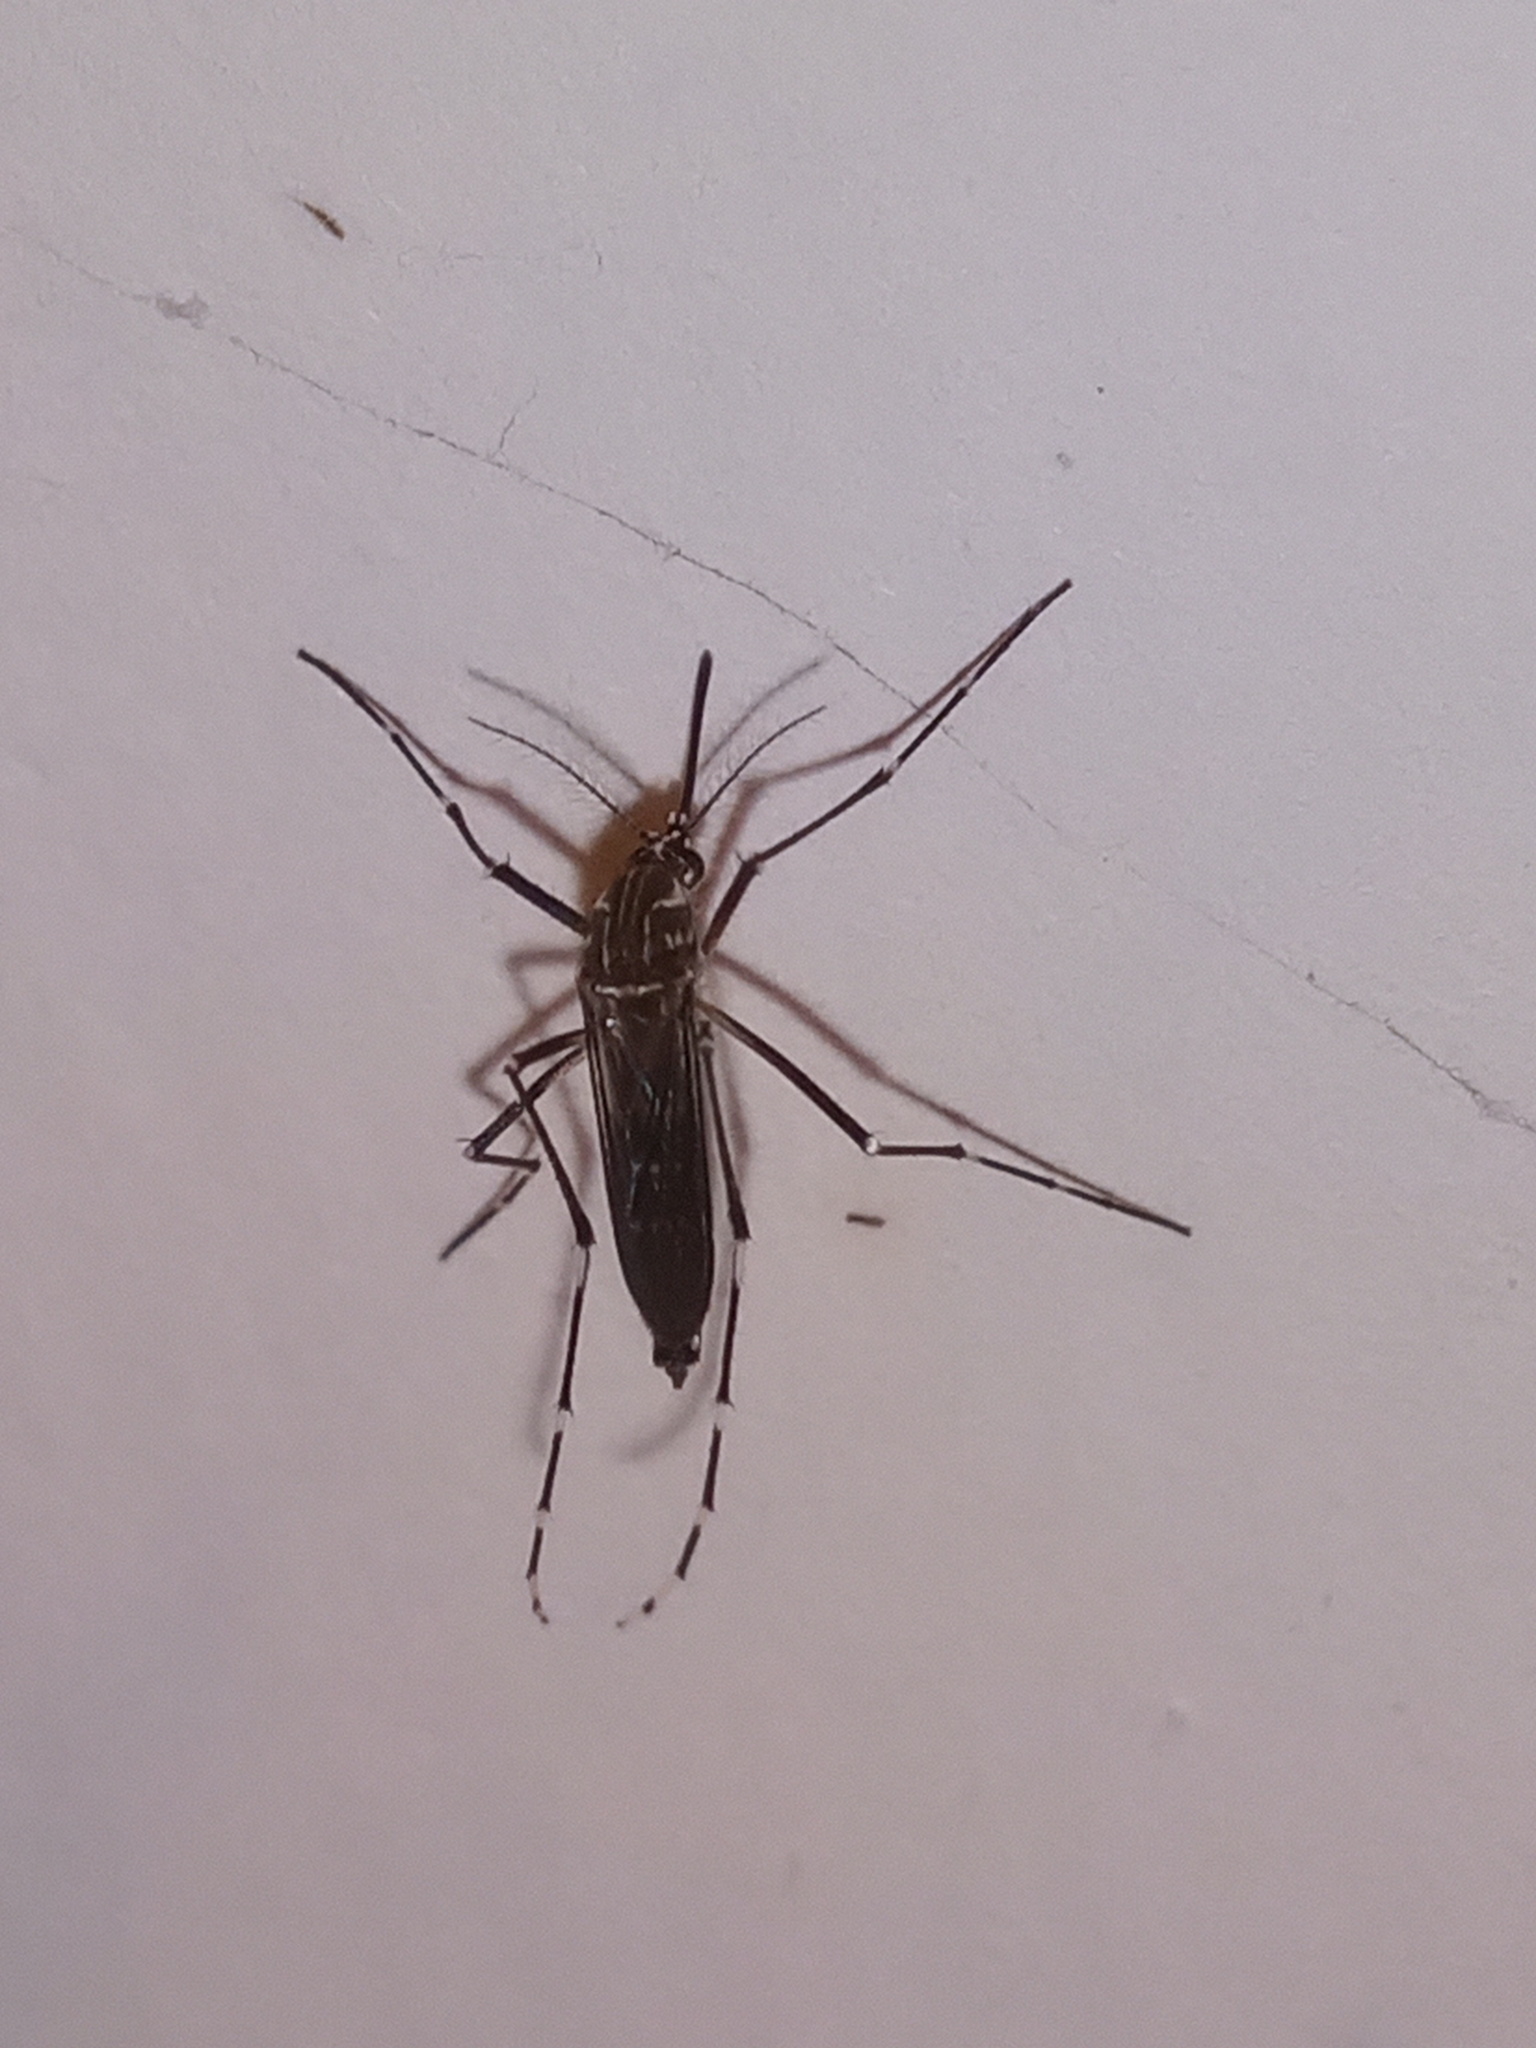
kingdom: Animalia
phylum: Arthropoda
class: Insecta
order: Diptera
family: Culicidae
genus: Aedes
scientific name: Aedes aegypti
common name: Yellow fever mosquito
